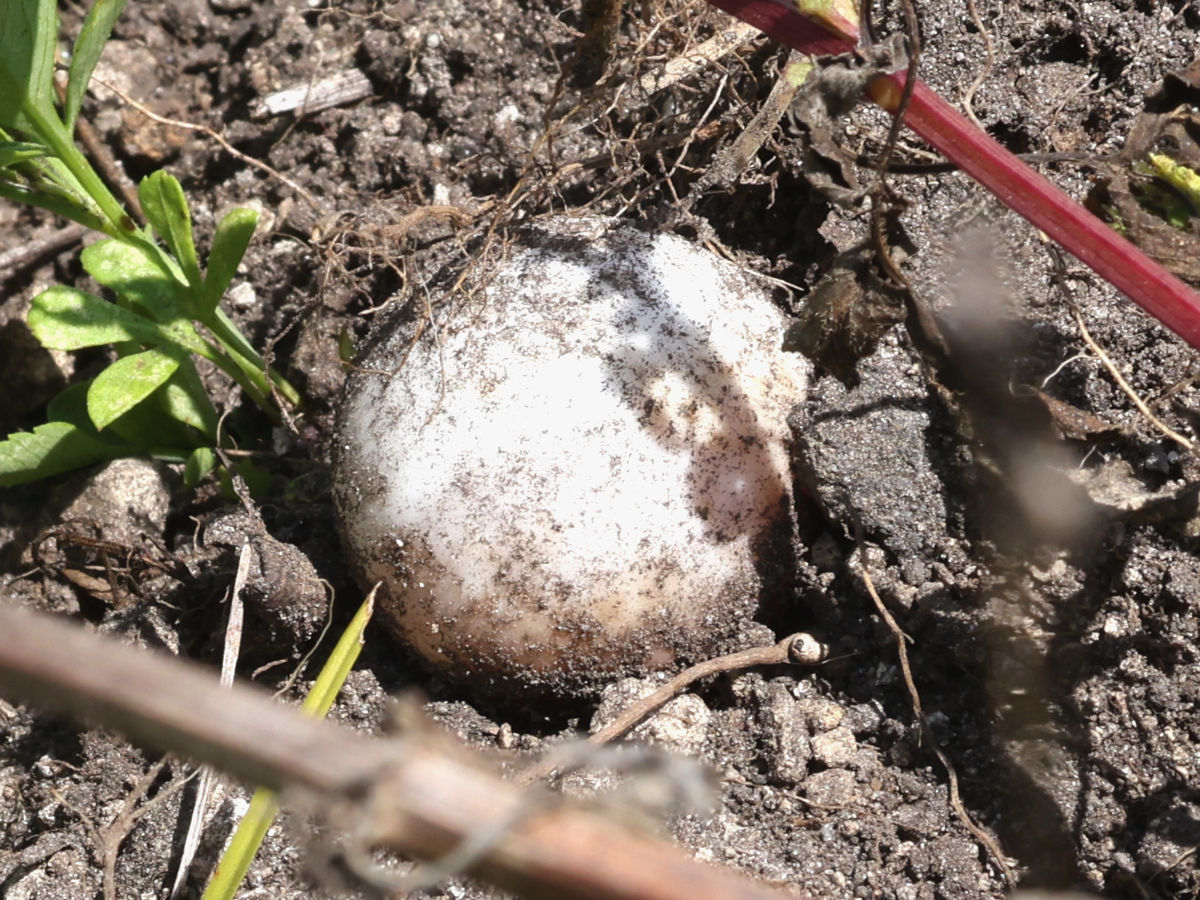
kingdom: Animalia
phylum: Chordata
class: Testudines
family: Trionychidae
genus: Apalone
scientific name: Apalone ferox
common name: Florida softshell turtle
